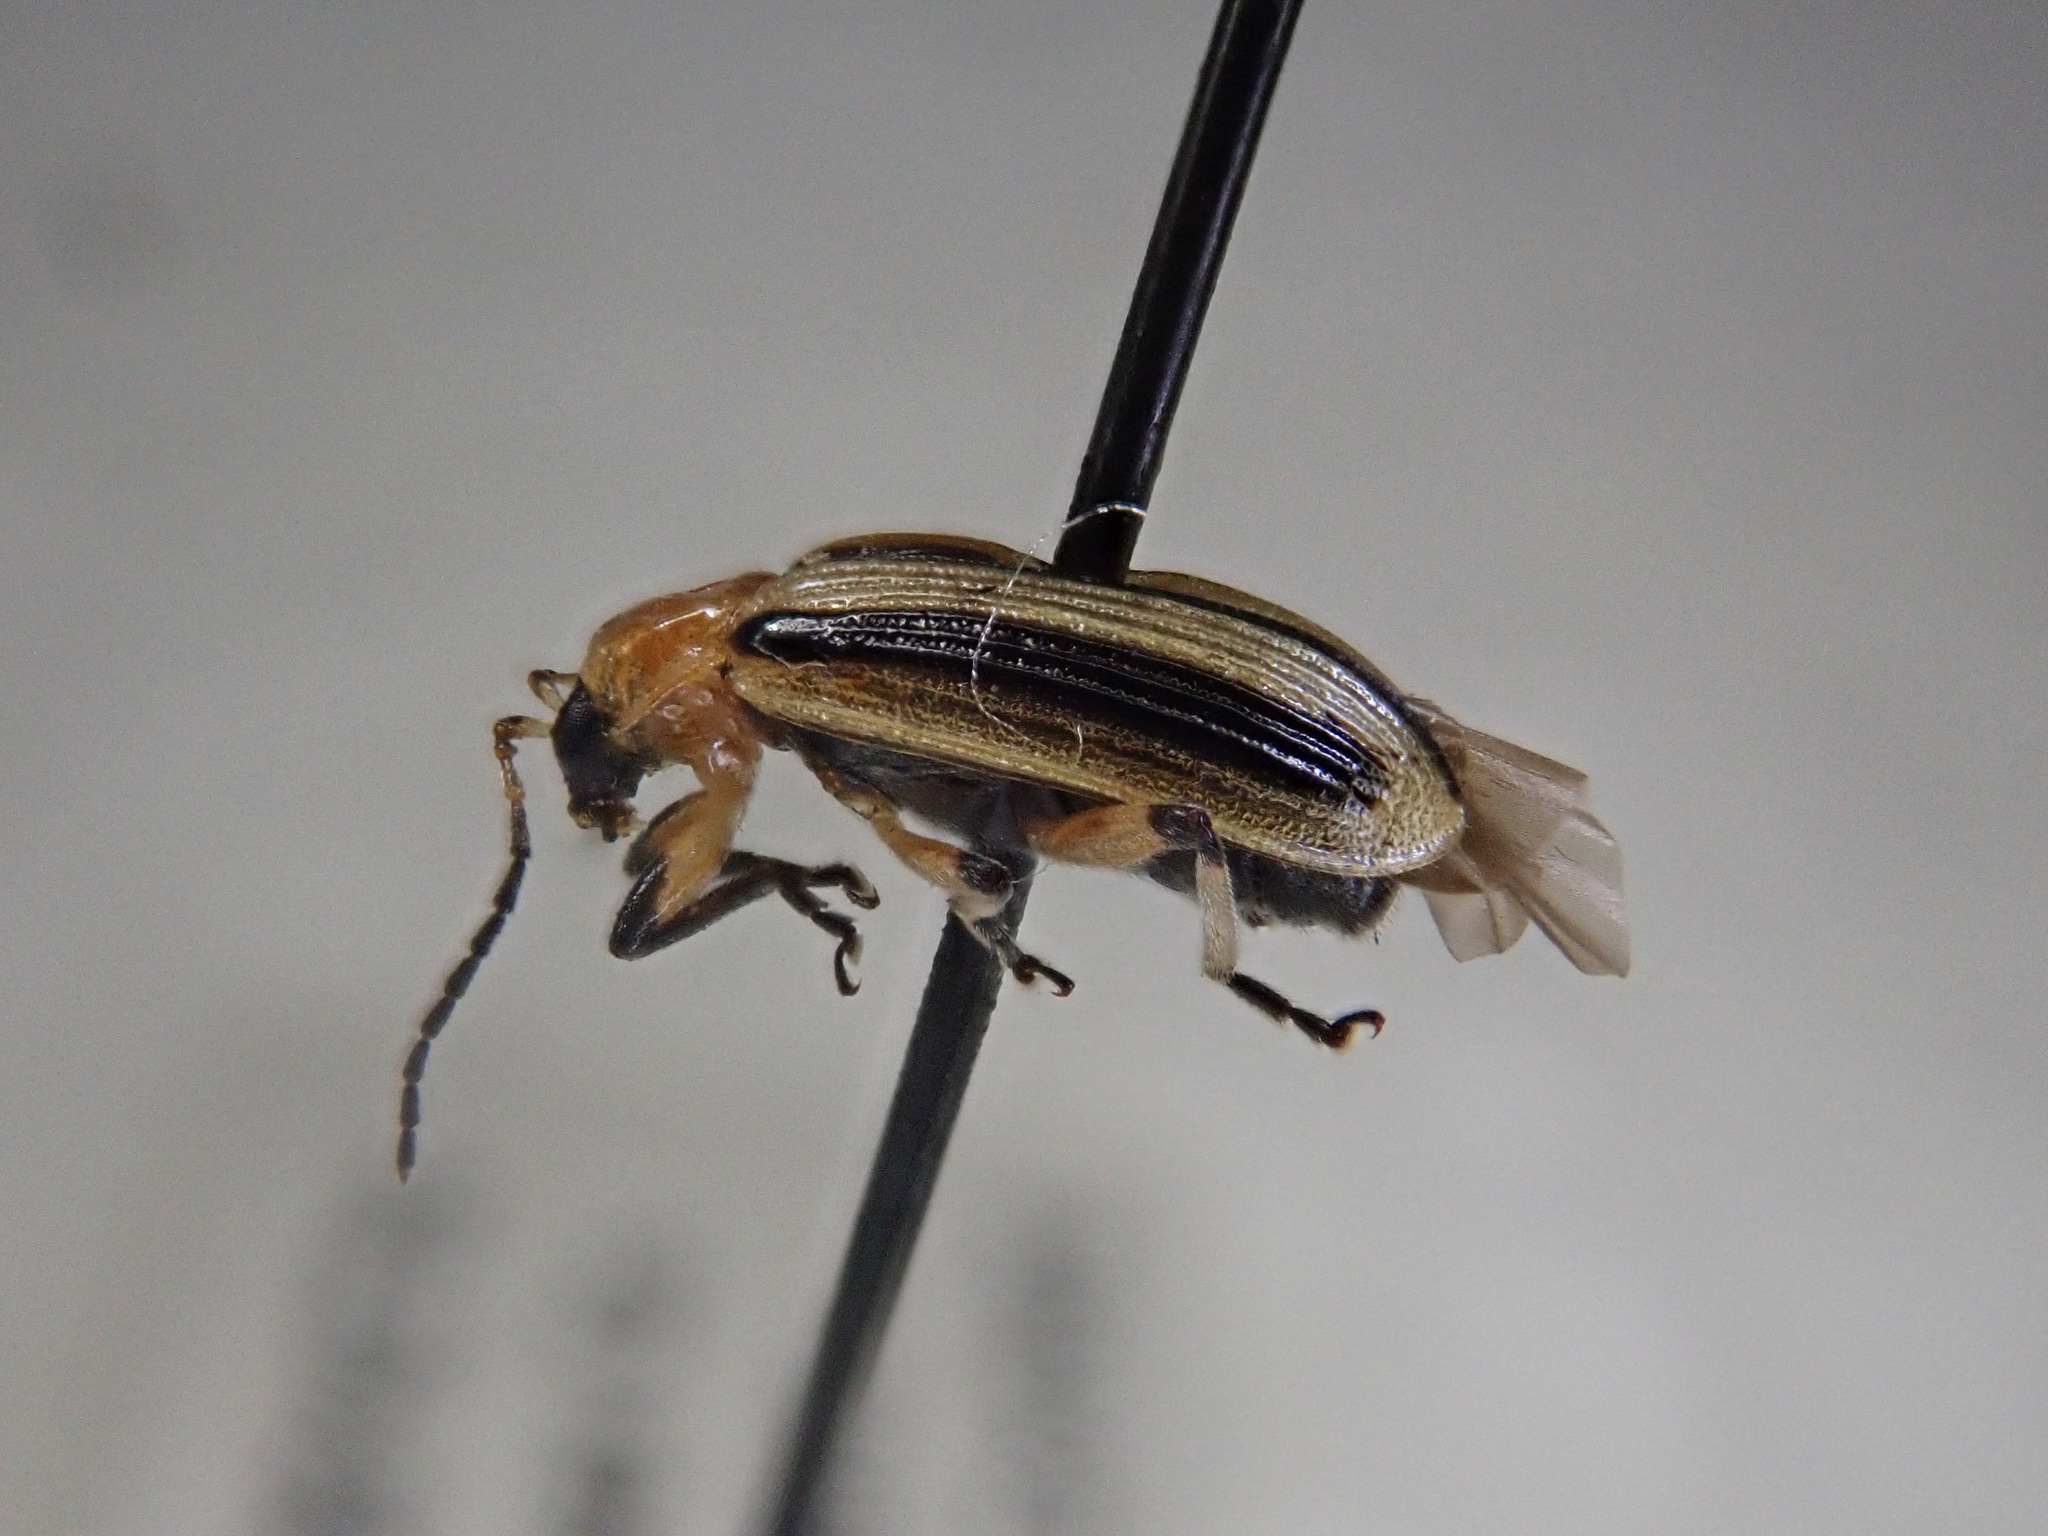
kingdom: Animalia
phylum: Arthropoda
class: Insecta
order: Coleoptera
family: Chrysomelidae
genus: Acalymma
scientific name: Acalymma vittatum
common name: Striped cucumber beetle
